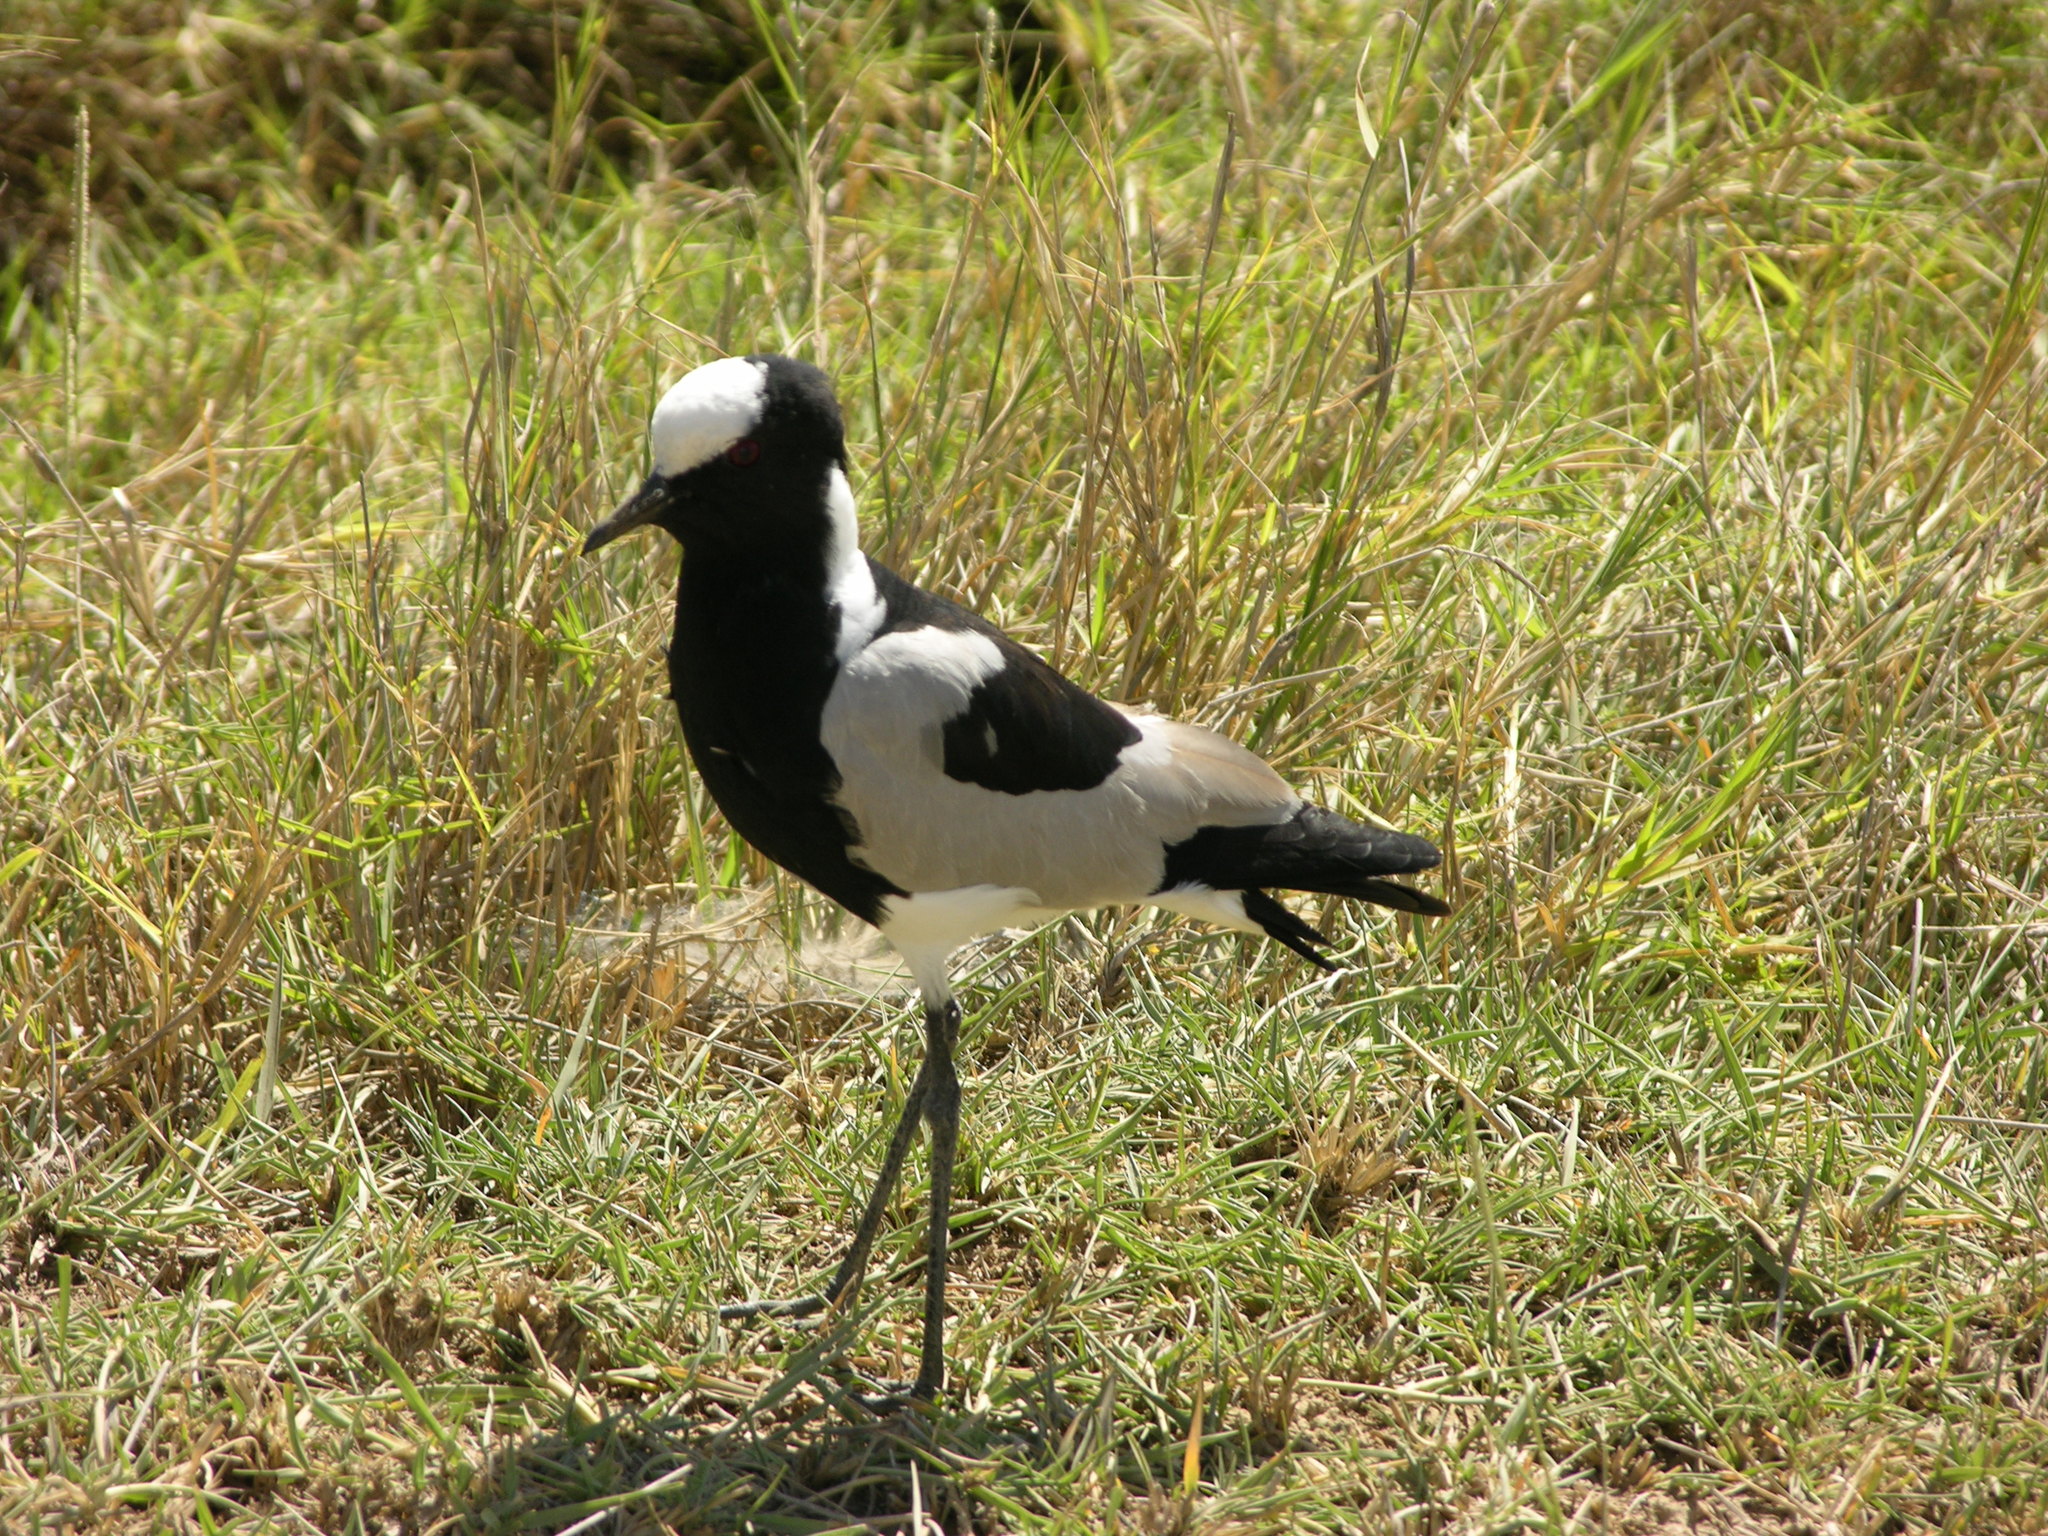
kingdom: Animalia
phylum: Chordata
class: Aves
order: Charadriiformes
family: Charadriidae
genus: Vanellus
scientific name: Vanellus armatus
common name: Blacksmith lapwing
